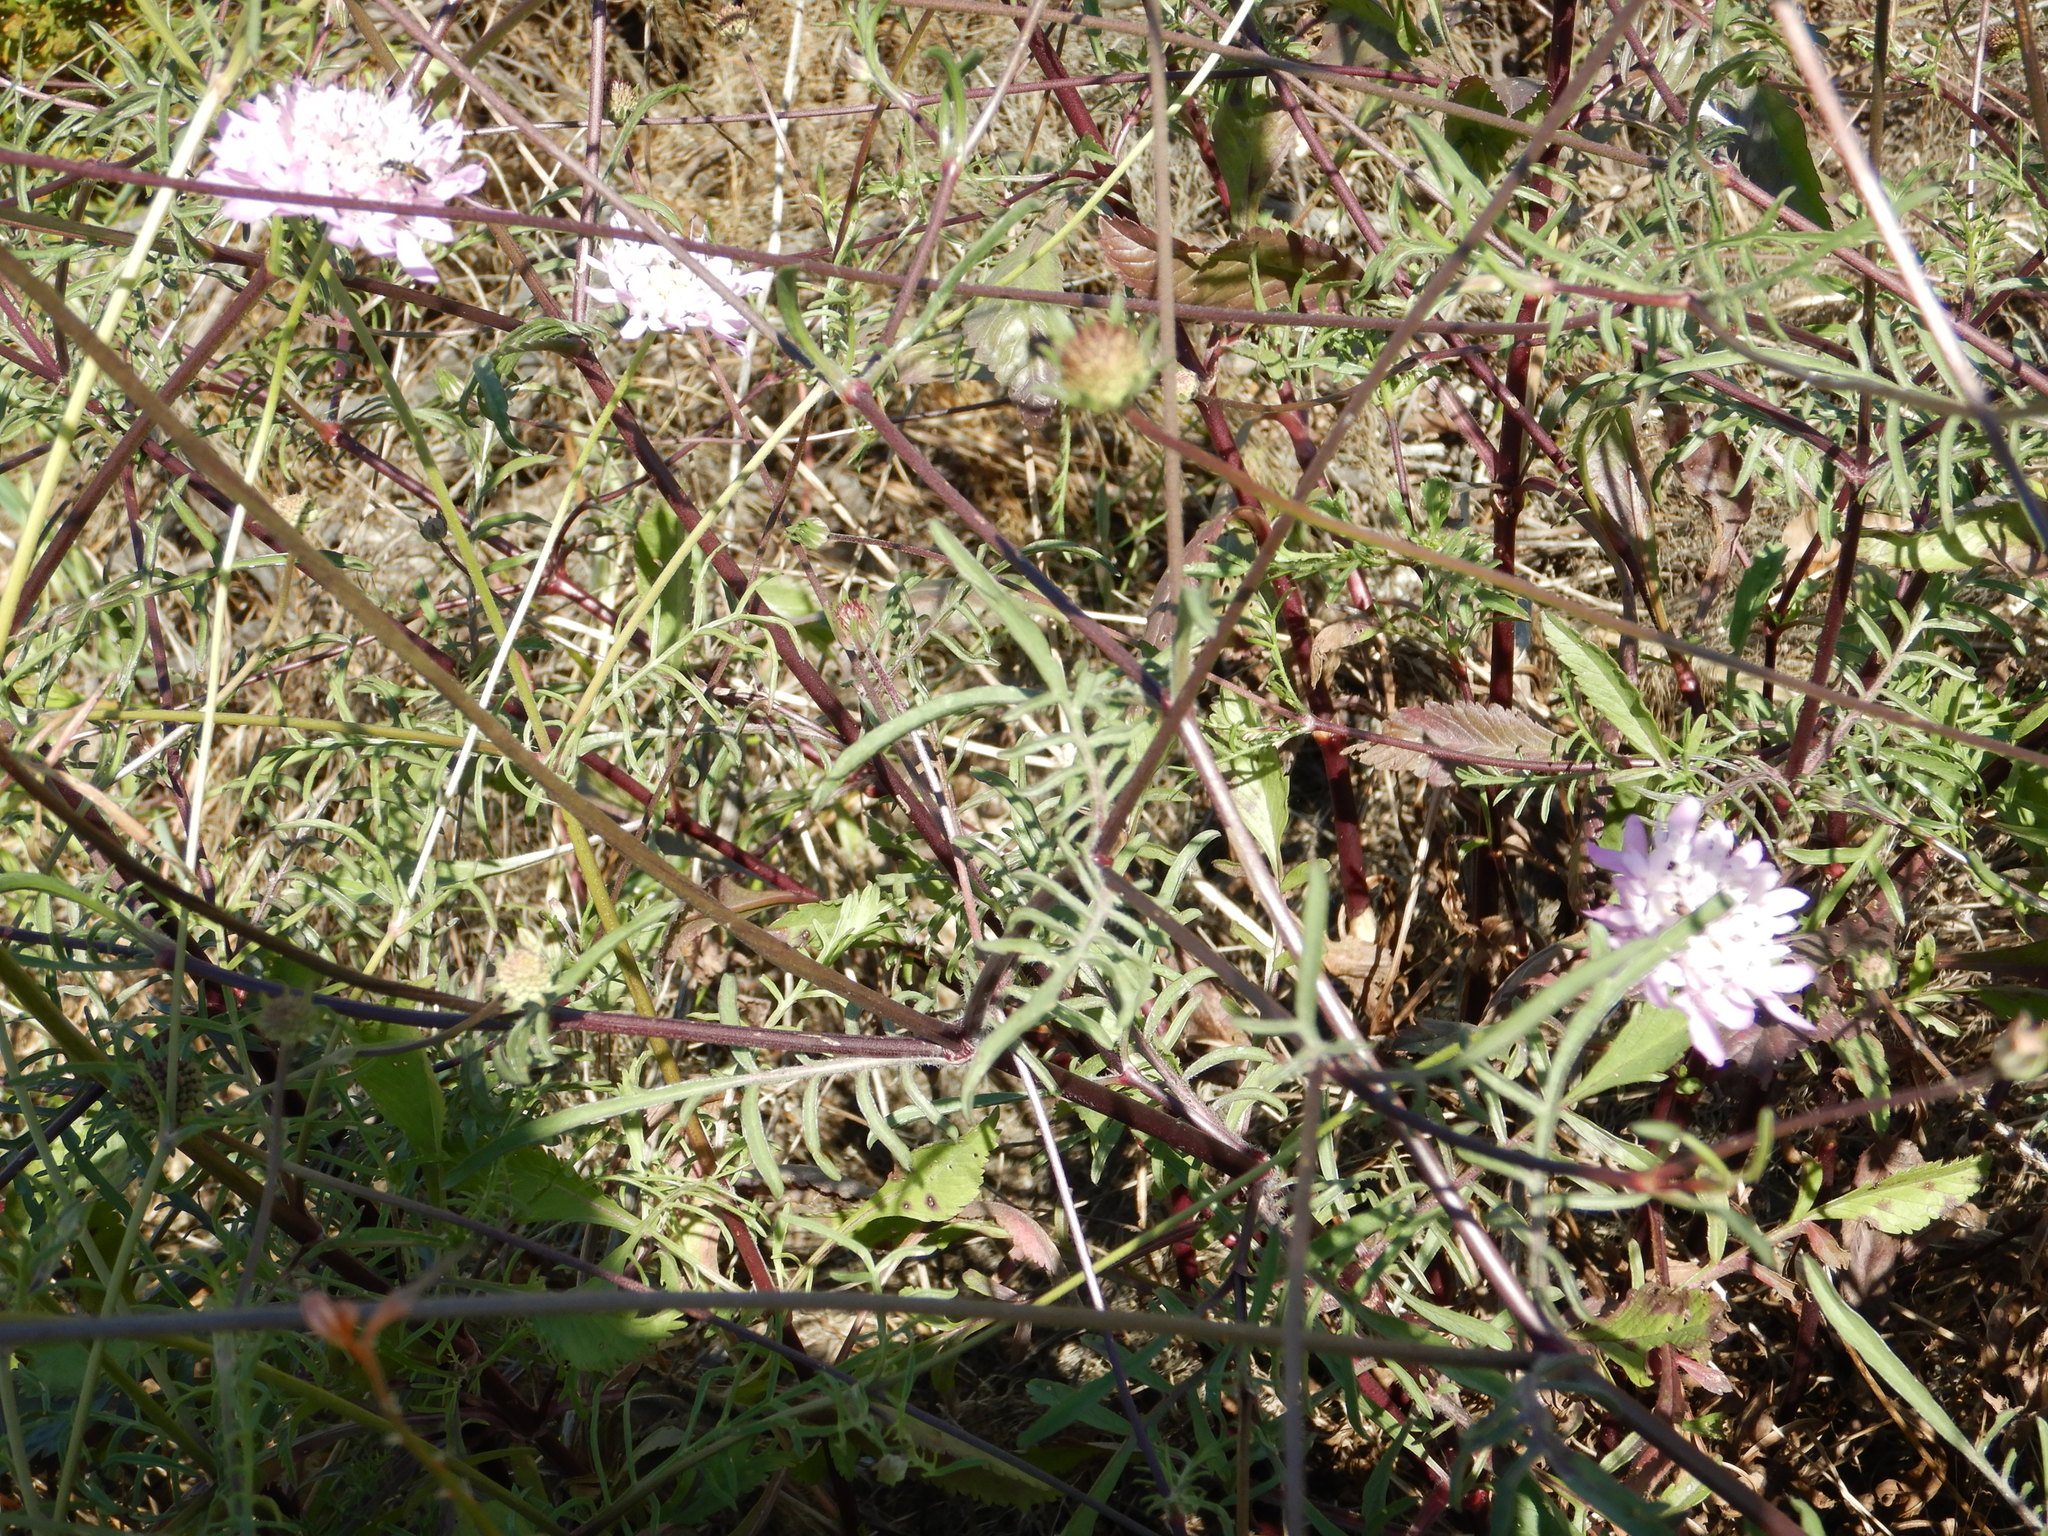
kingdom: Plantae
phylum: Tracheophyta
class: Magnoliopsida
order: Dipsacales
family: Caprifoliaceae
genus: Sixalix
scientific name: Sixalix atropurpurea
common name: Sweet scabious
